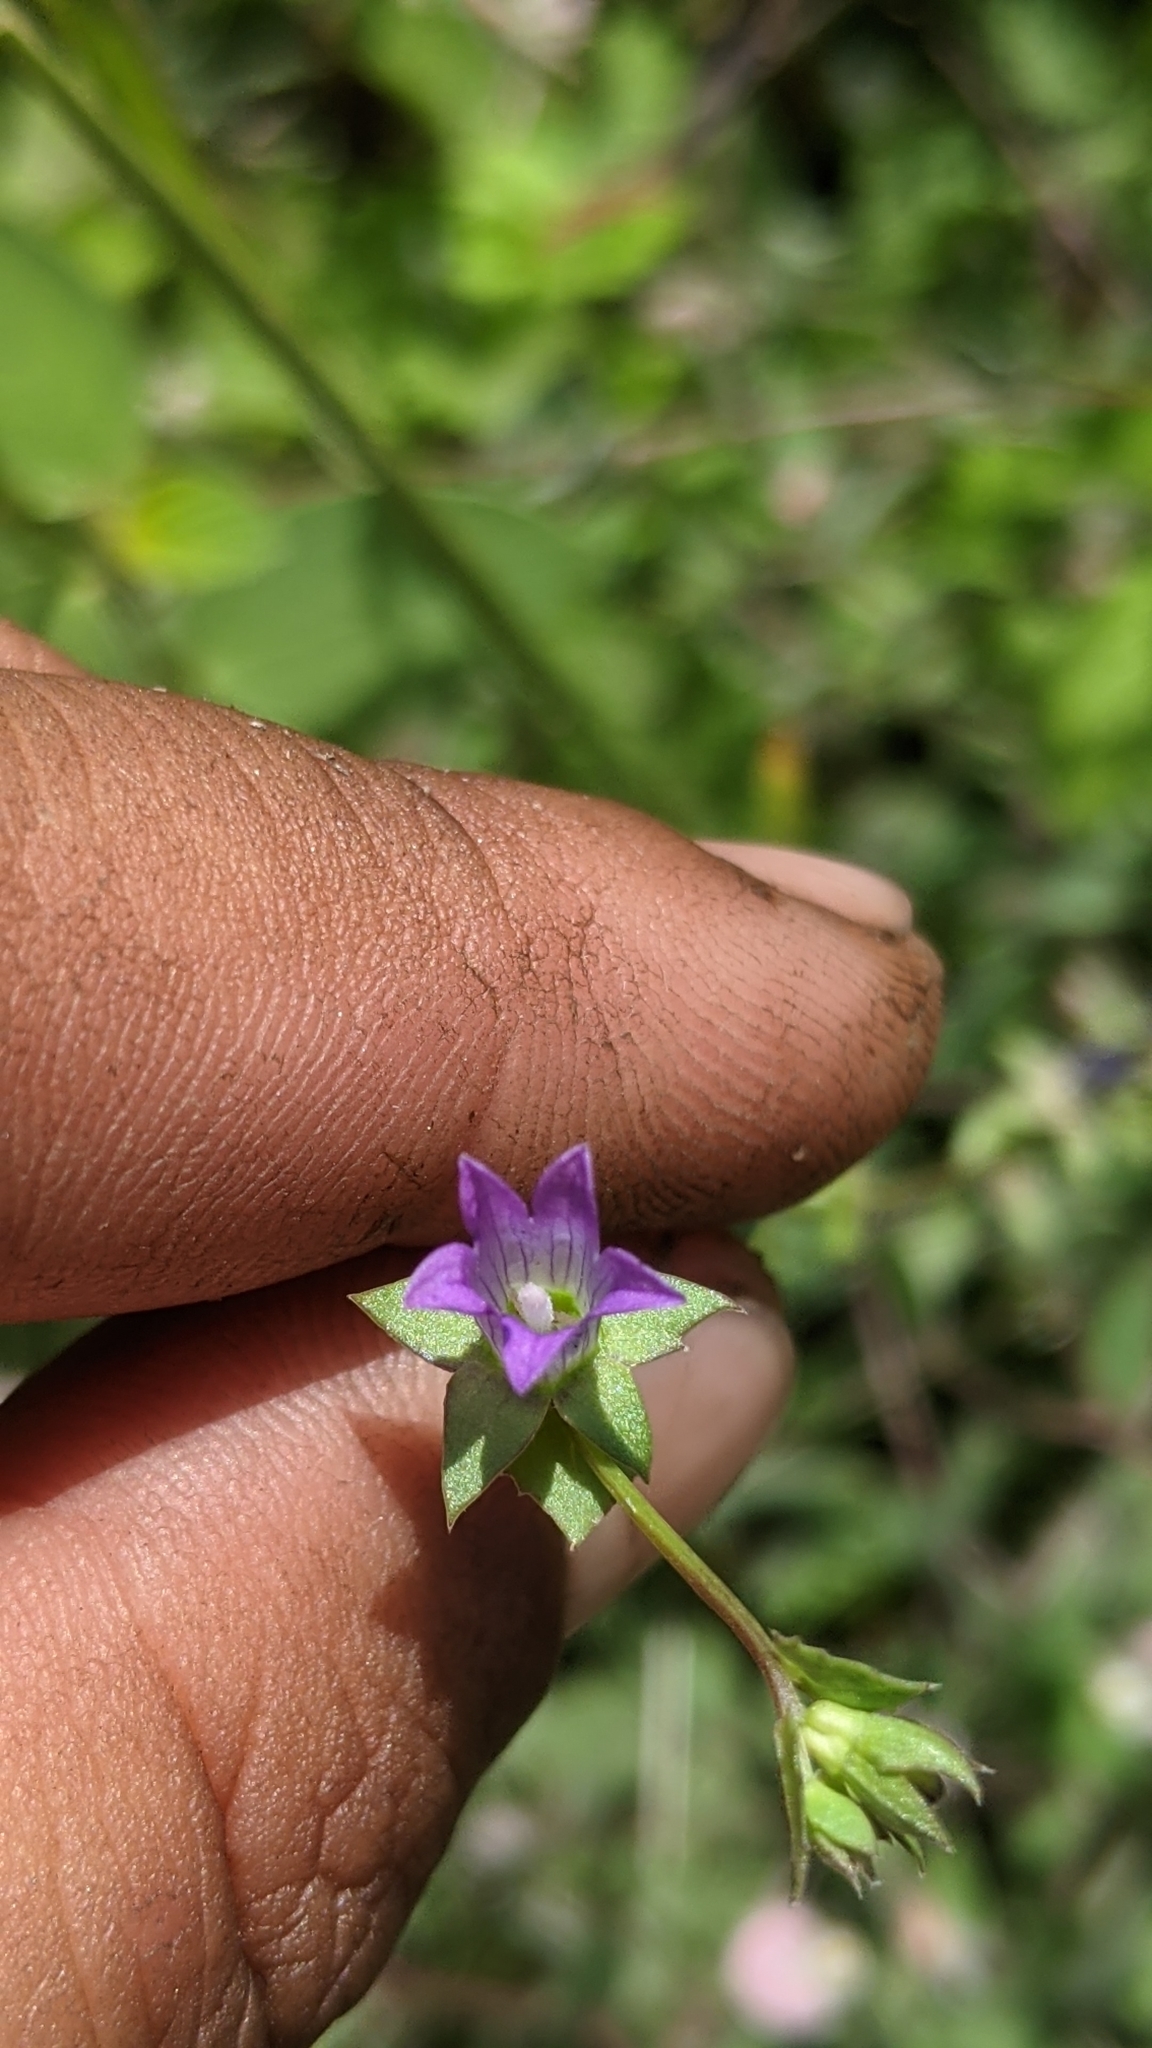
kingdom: Plantae
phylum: Tracheophyta
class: Magnoliopsida
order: Asterales
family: Campanulaceae
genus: Heterocodon
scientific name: Heterocodon rariflorum
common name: Rareflower heterocodon
